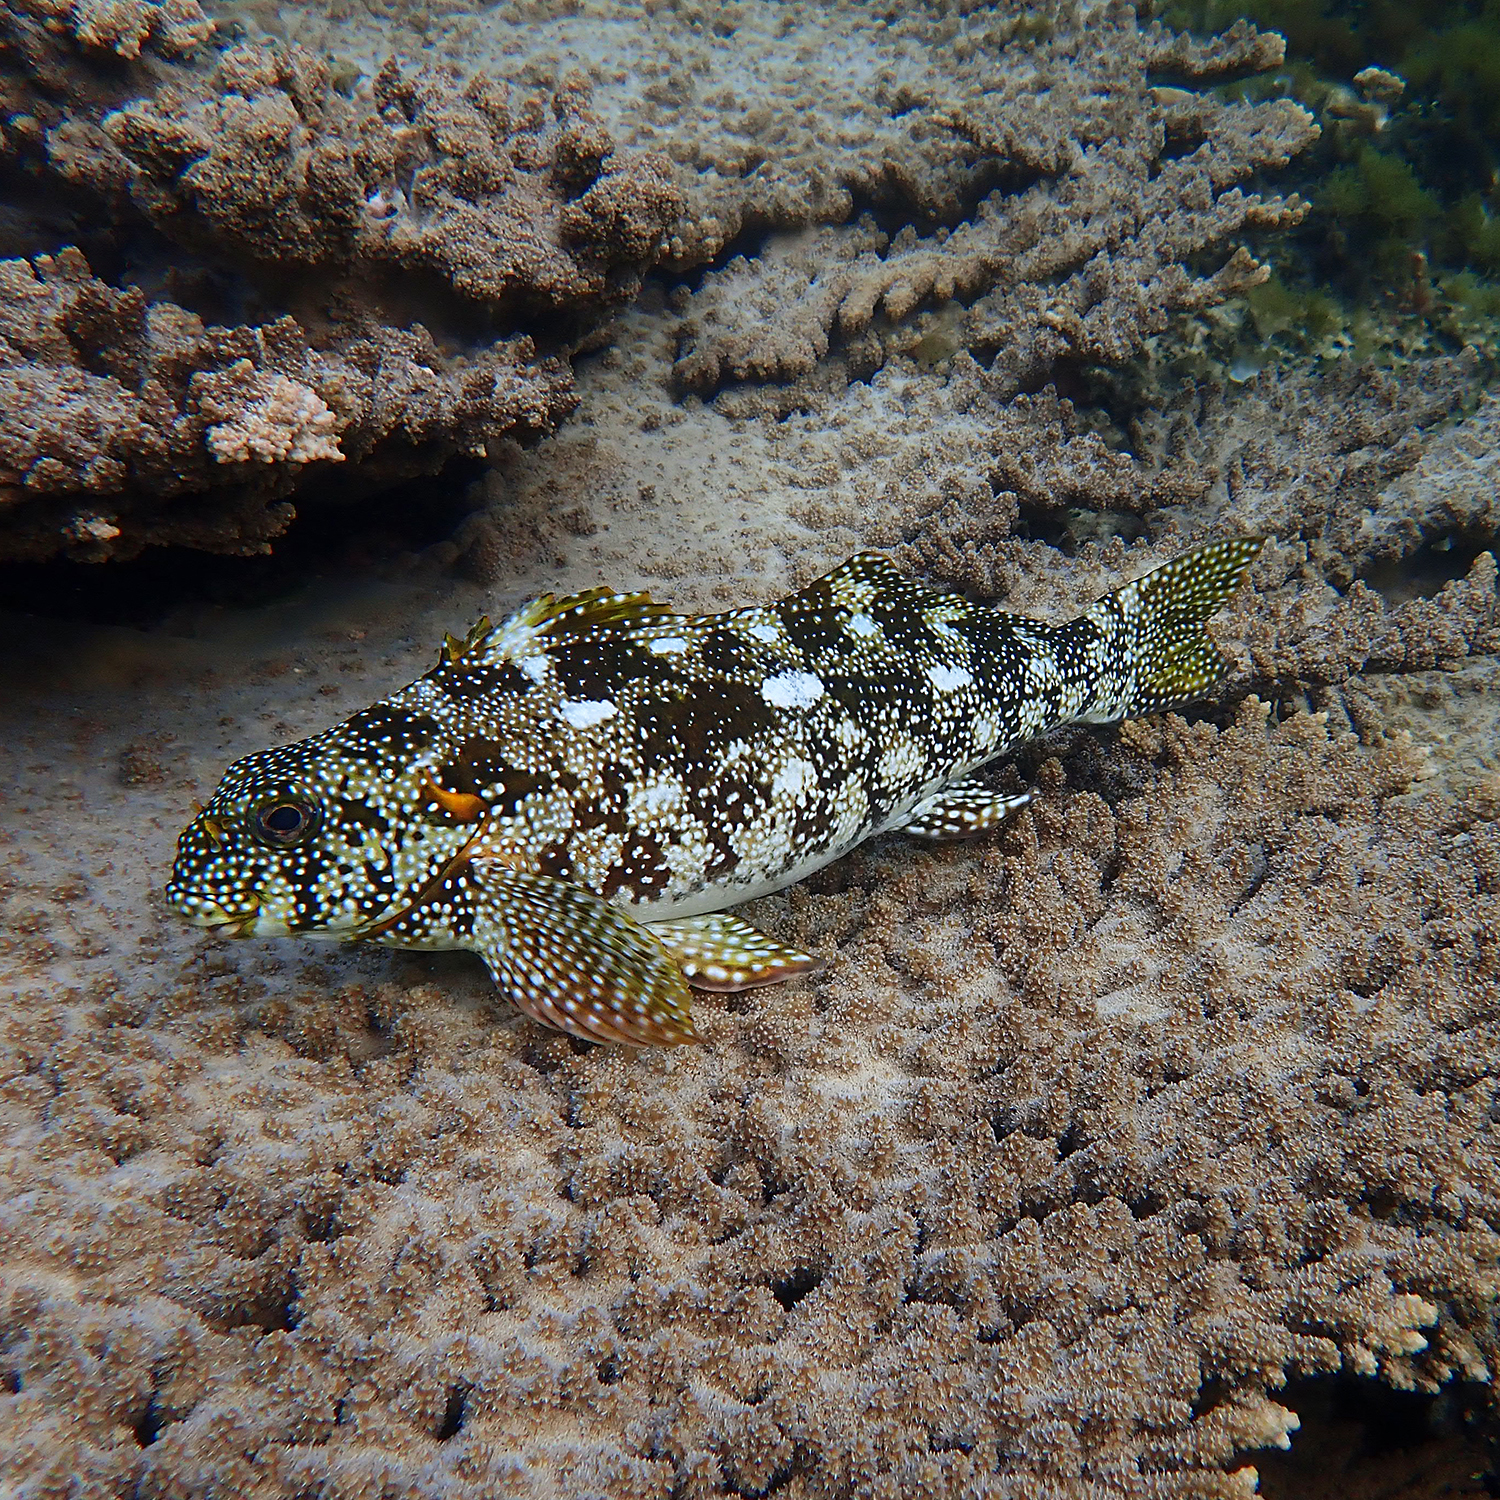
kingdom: Animalia
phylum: Chordata
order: Perciformes
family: Aplodactylidae
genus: Aplodactylus
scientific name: Aplodactylus etheridgii
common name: Notchheaded marblefish
